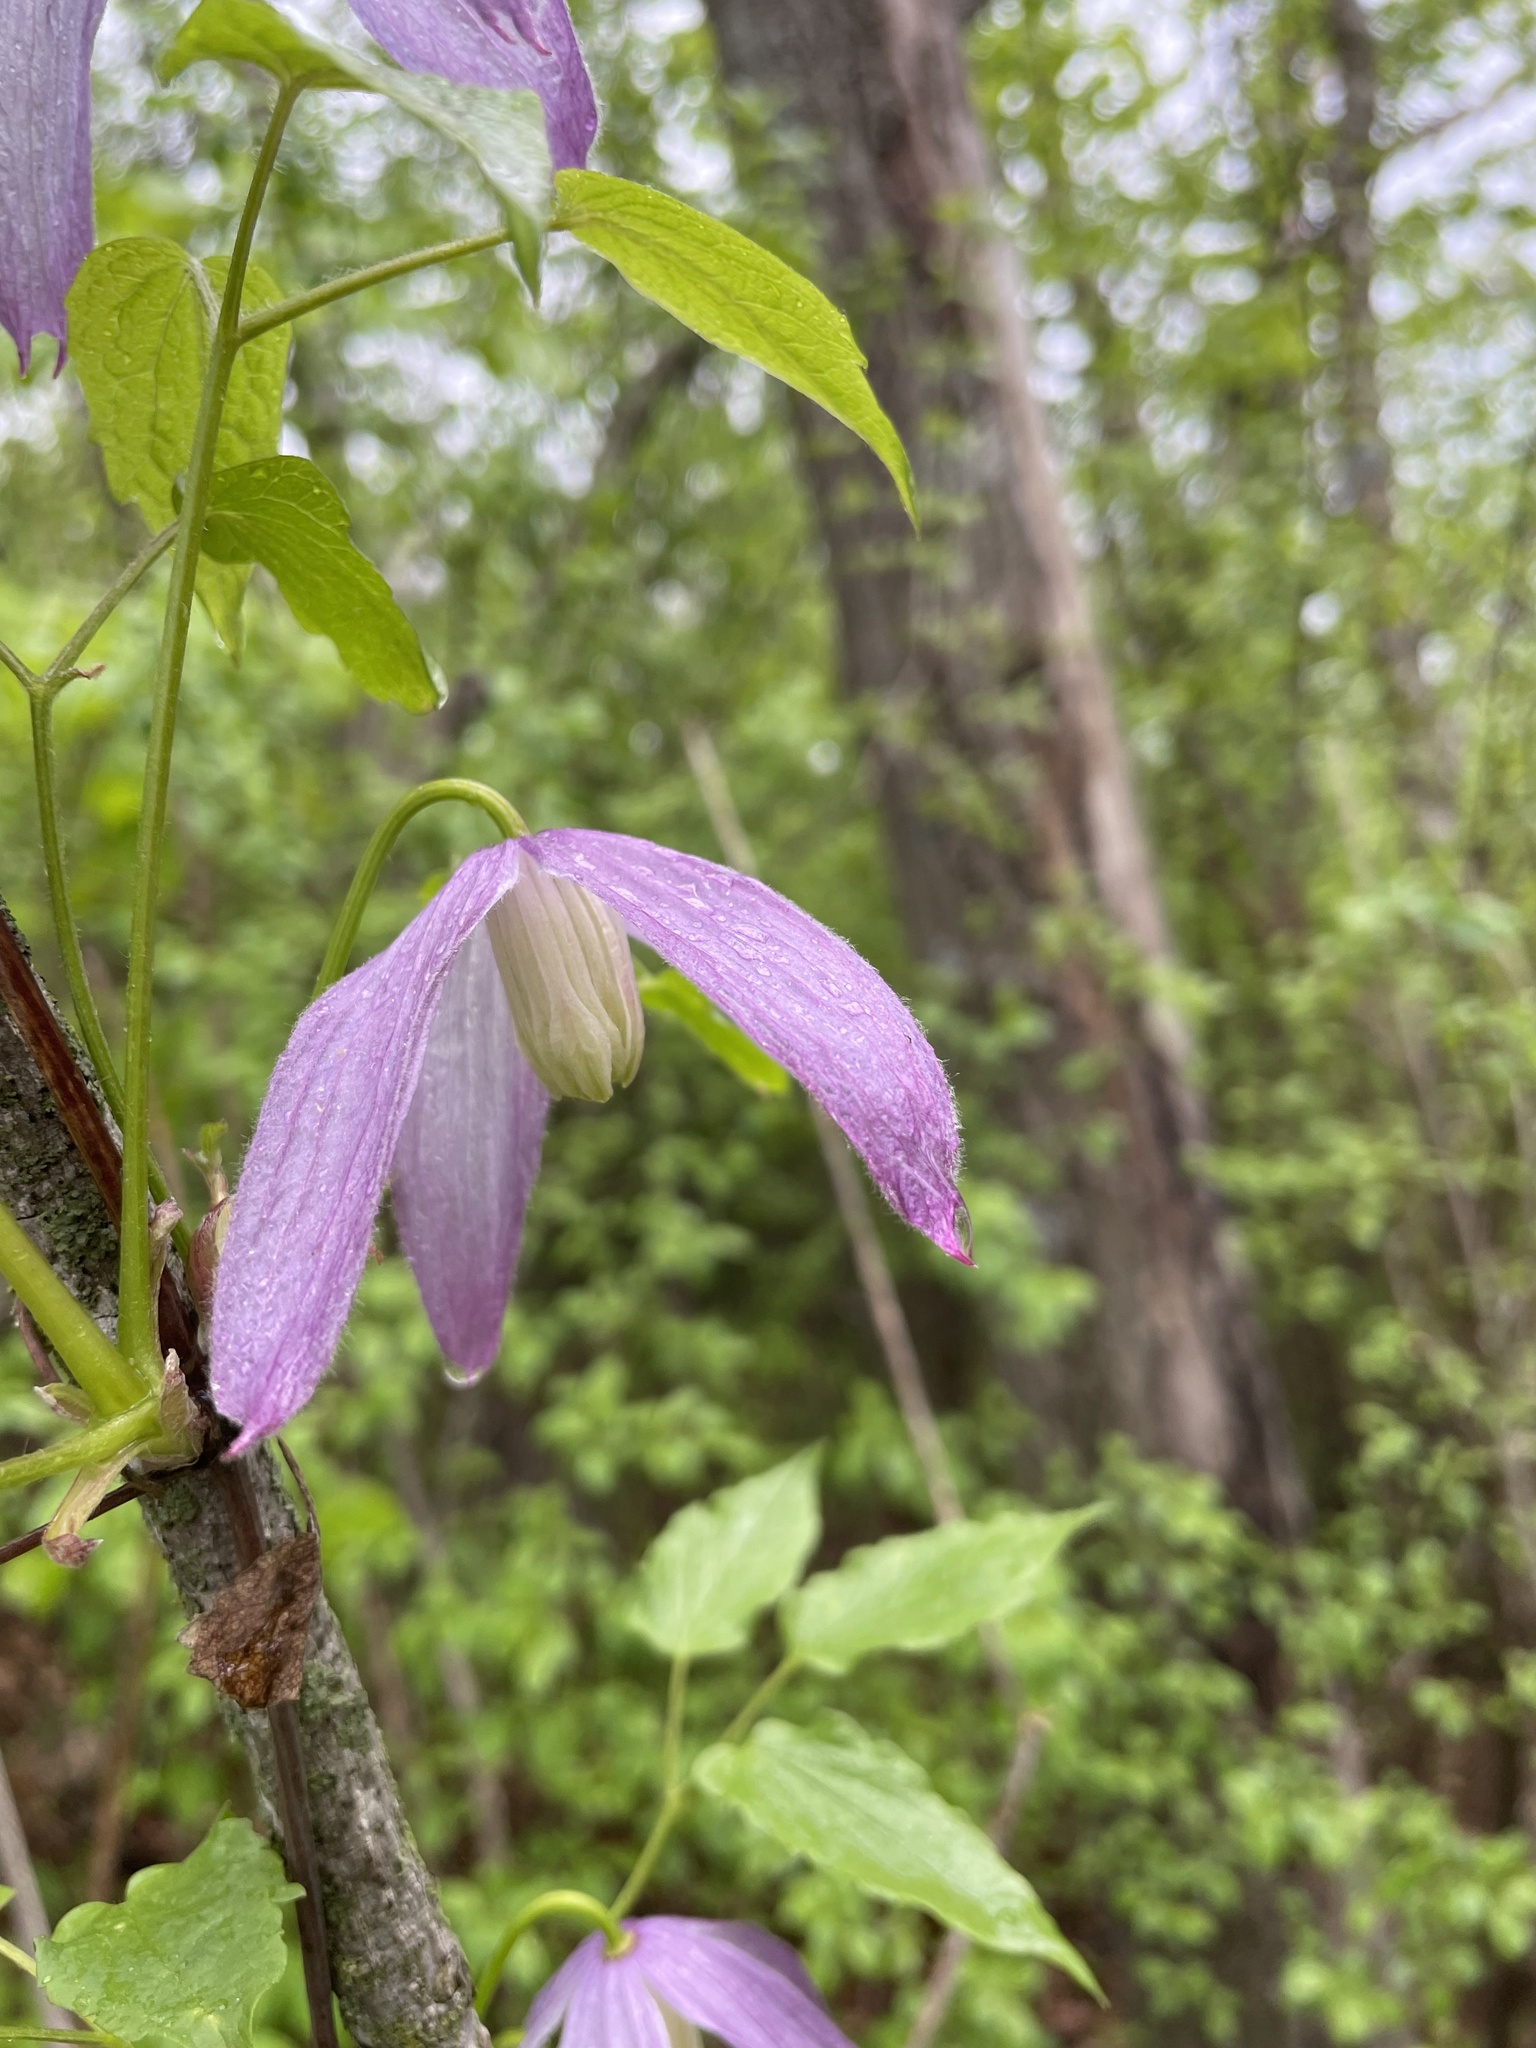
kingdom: Plantae
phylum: Tracheophyta
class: Magnoliopsida
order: Ranunculales
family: Ranunculaceae
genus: Clematis
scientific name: Clematis occidentalis
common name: Purple clematis
